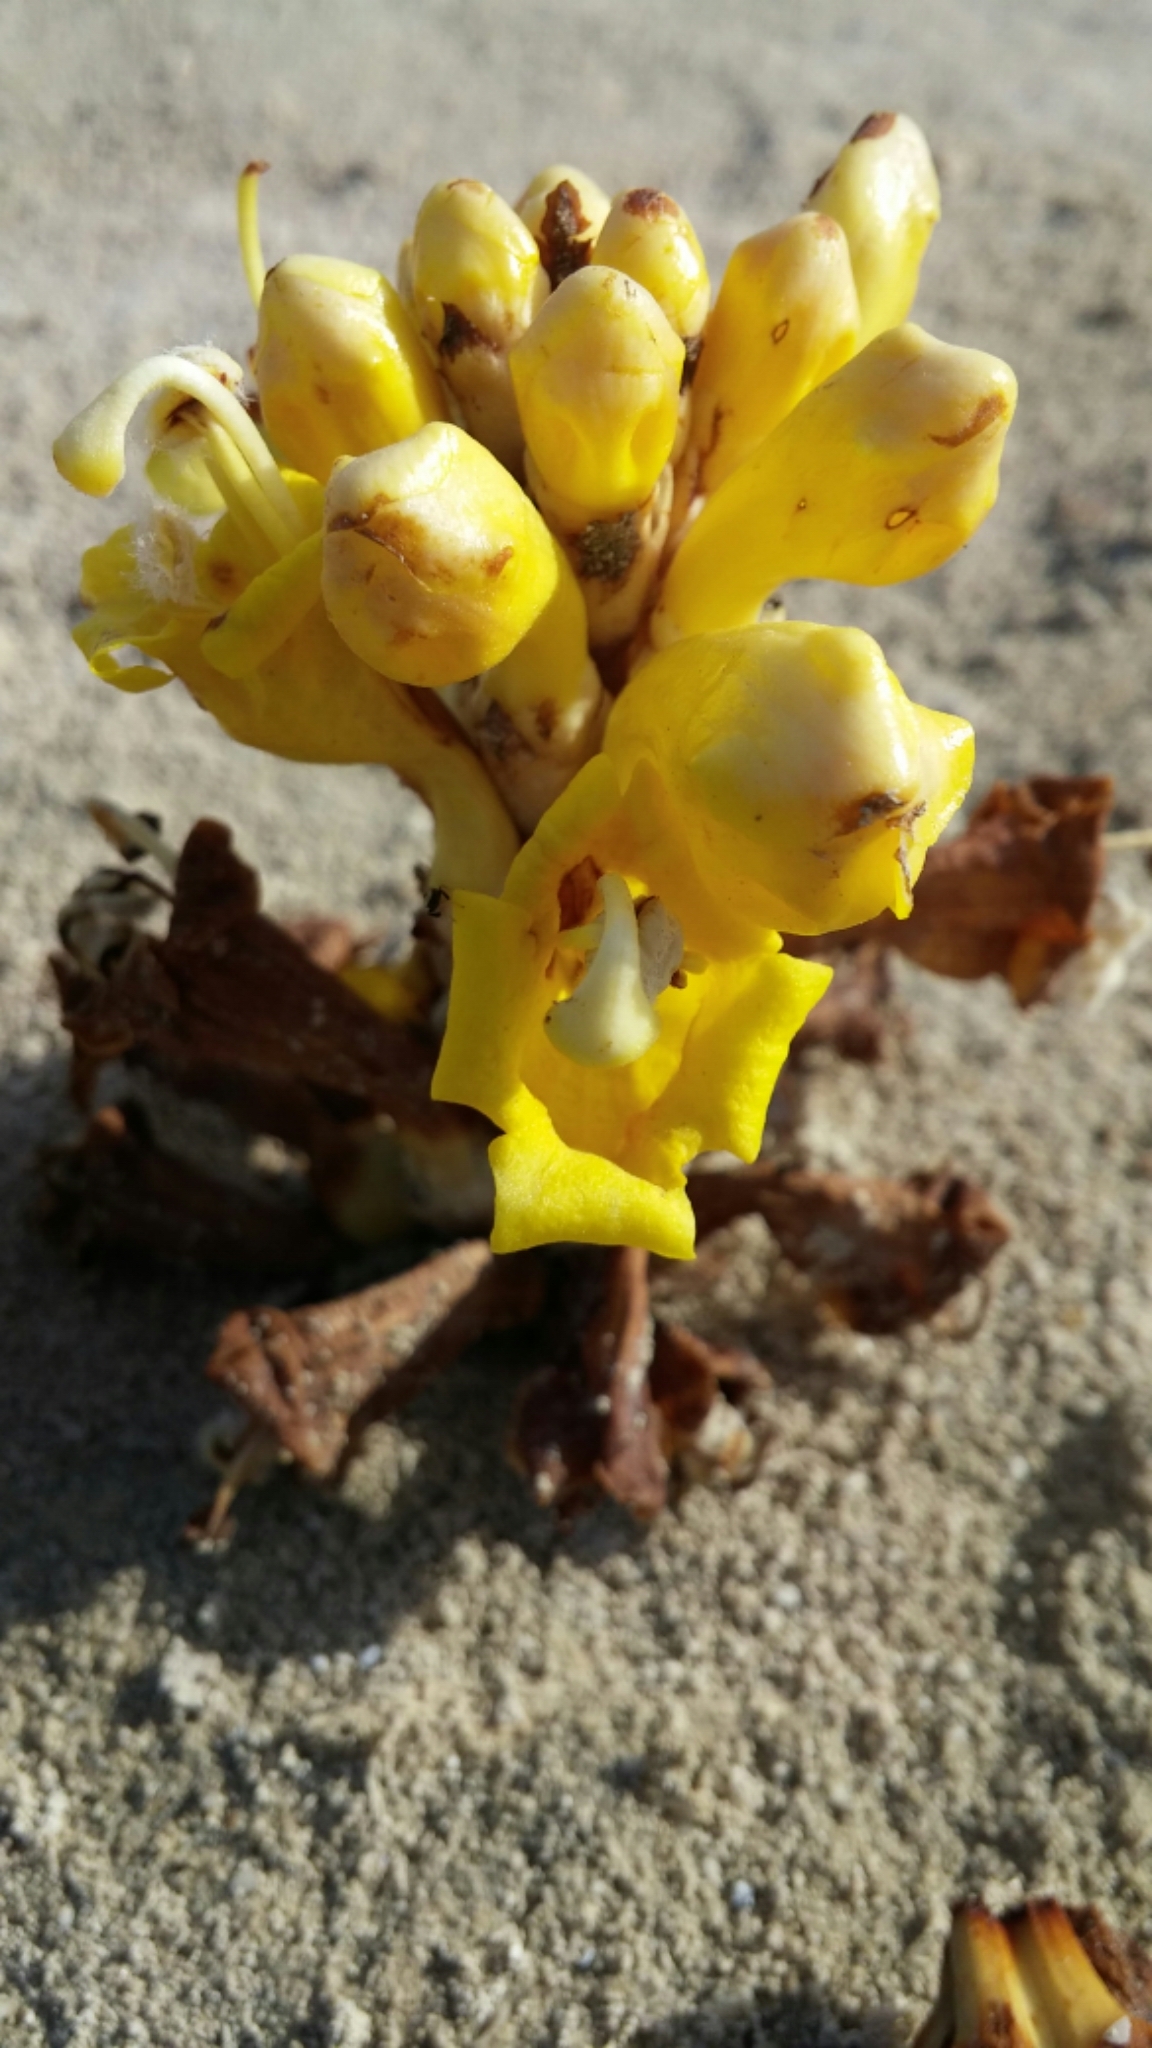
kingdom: Plantae
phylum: Tracheophyta
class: Magnoliopsida
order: Lamiales
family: Orobanchaceae
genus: Cistanche
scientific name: Cistanche tubulosa
